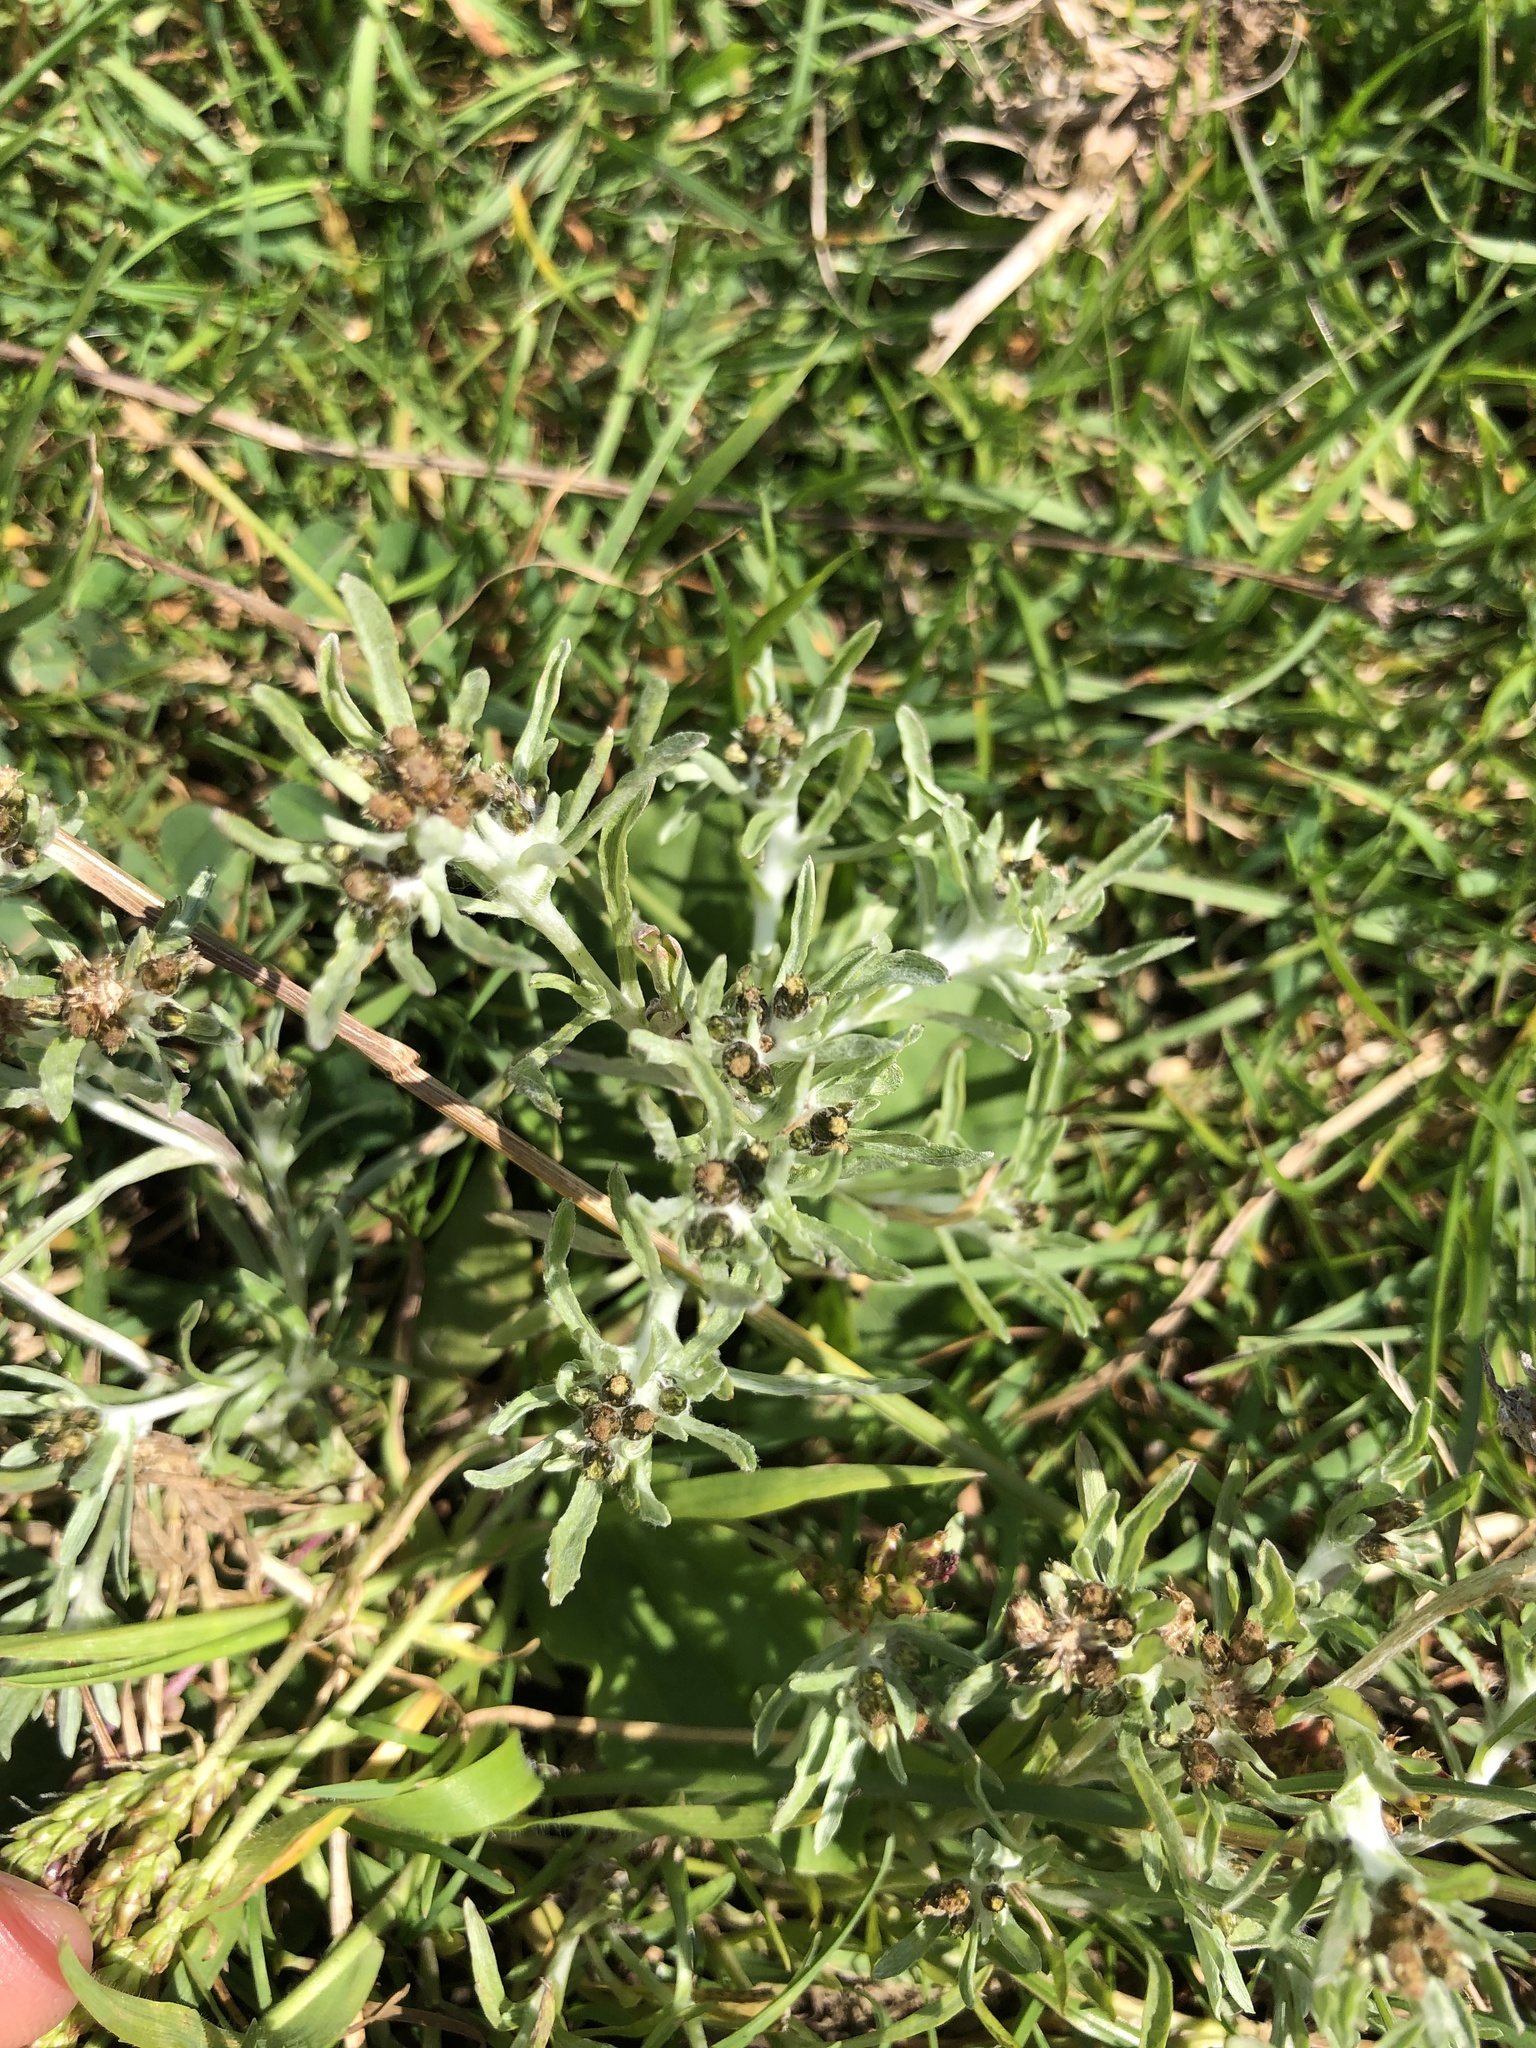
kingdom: Plantae
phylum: Tracheophyta
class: Magnoliopsida
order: Asterales
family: Asteraceae
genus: Gnaphalium
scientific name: Gnaphalium uliginosum
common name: Marsh cudweed
